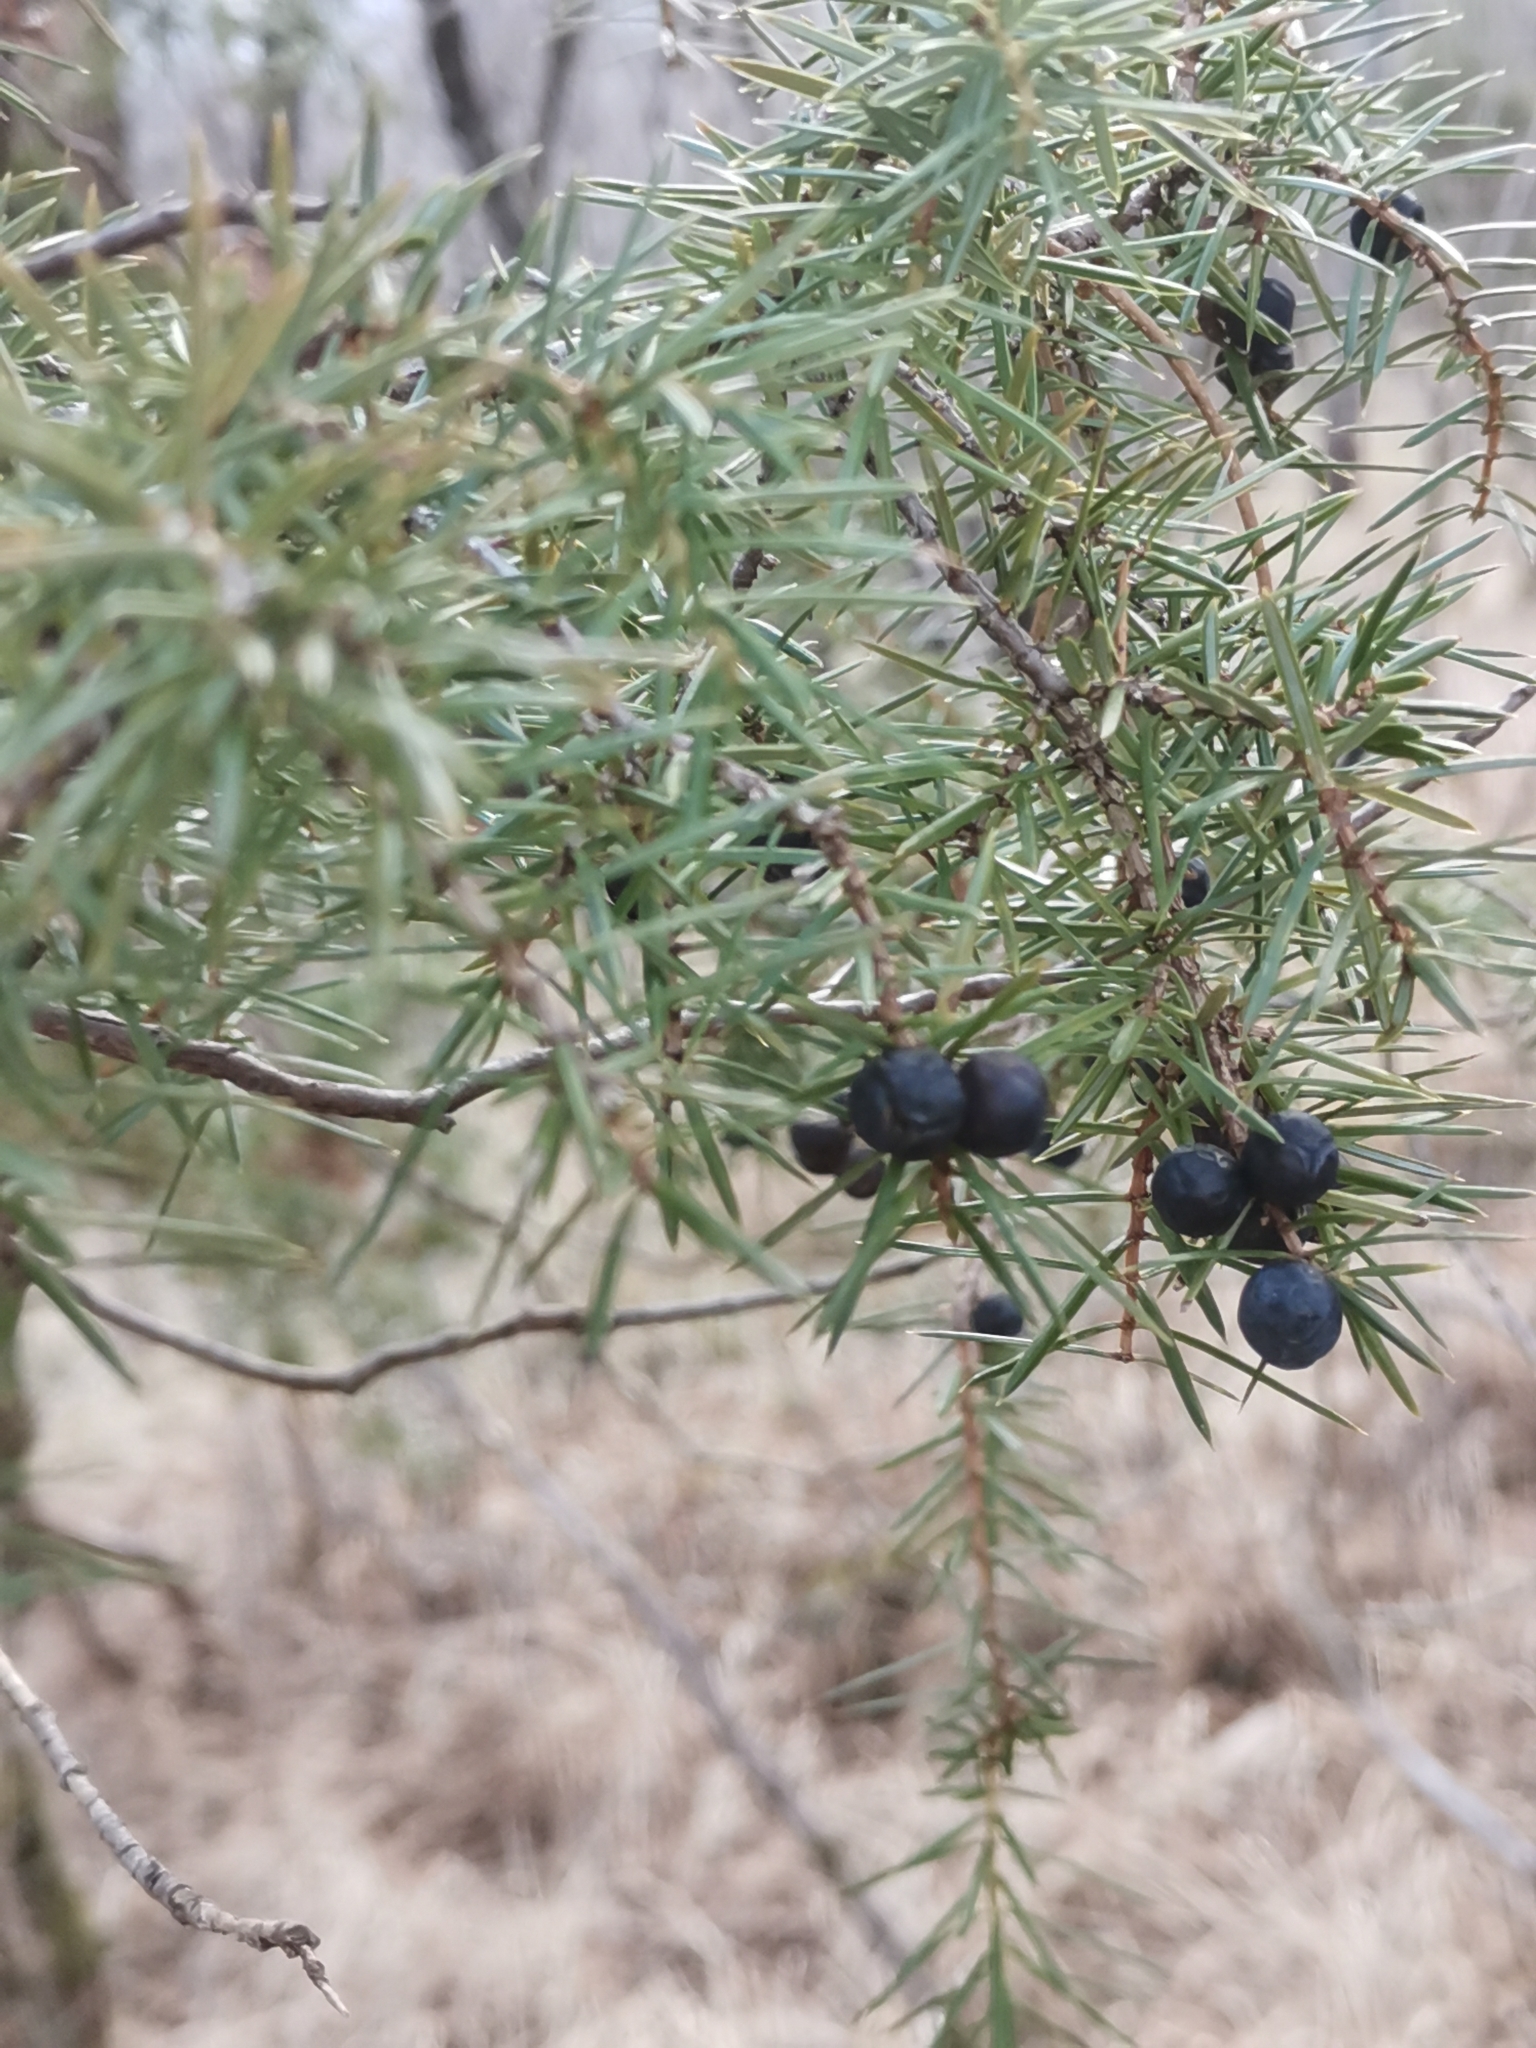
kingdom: Plantae
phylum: Tracheophyta
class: Pinopsida
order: Pinales
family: Cupressaceae
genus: Juniperus
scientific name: Juniperus communis
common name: Common juniper
